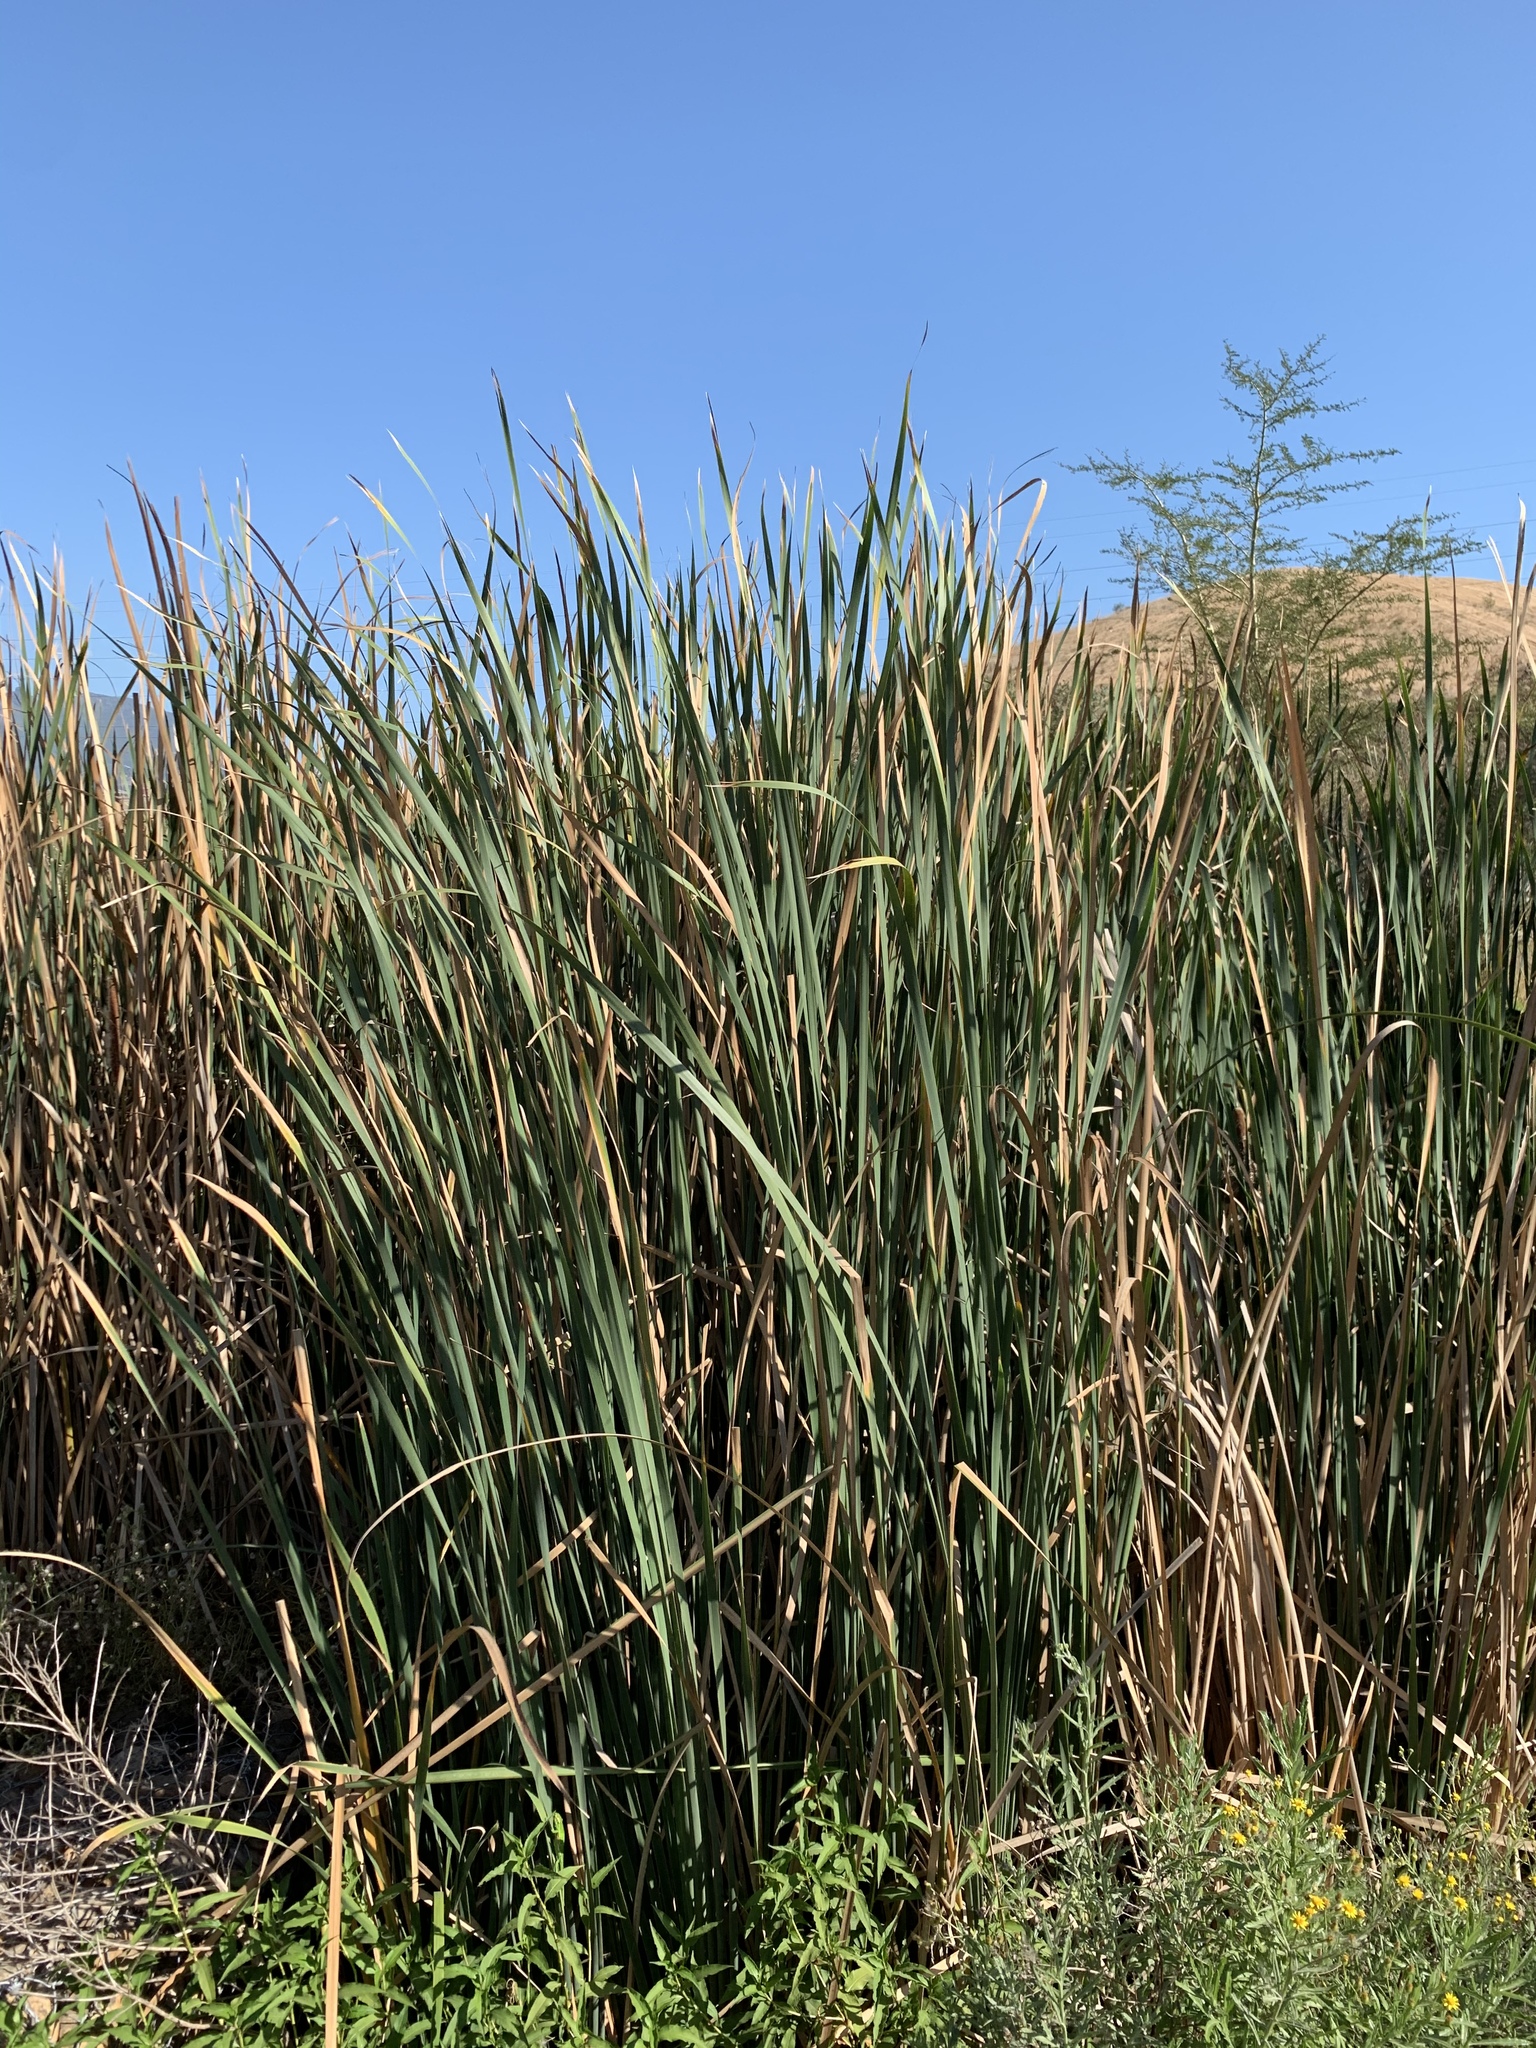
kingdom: Plantae
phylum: Tracheophyta
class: Liliopsida
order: Poales
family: Typhaceae
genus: Typha
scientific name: Typha capensis
